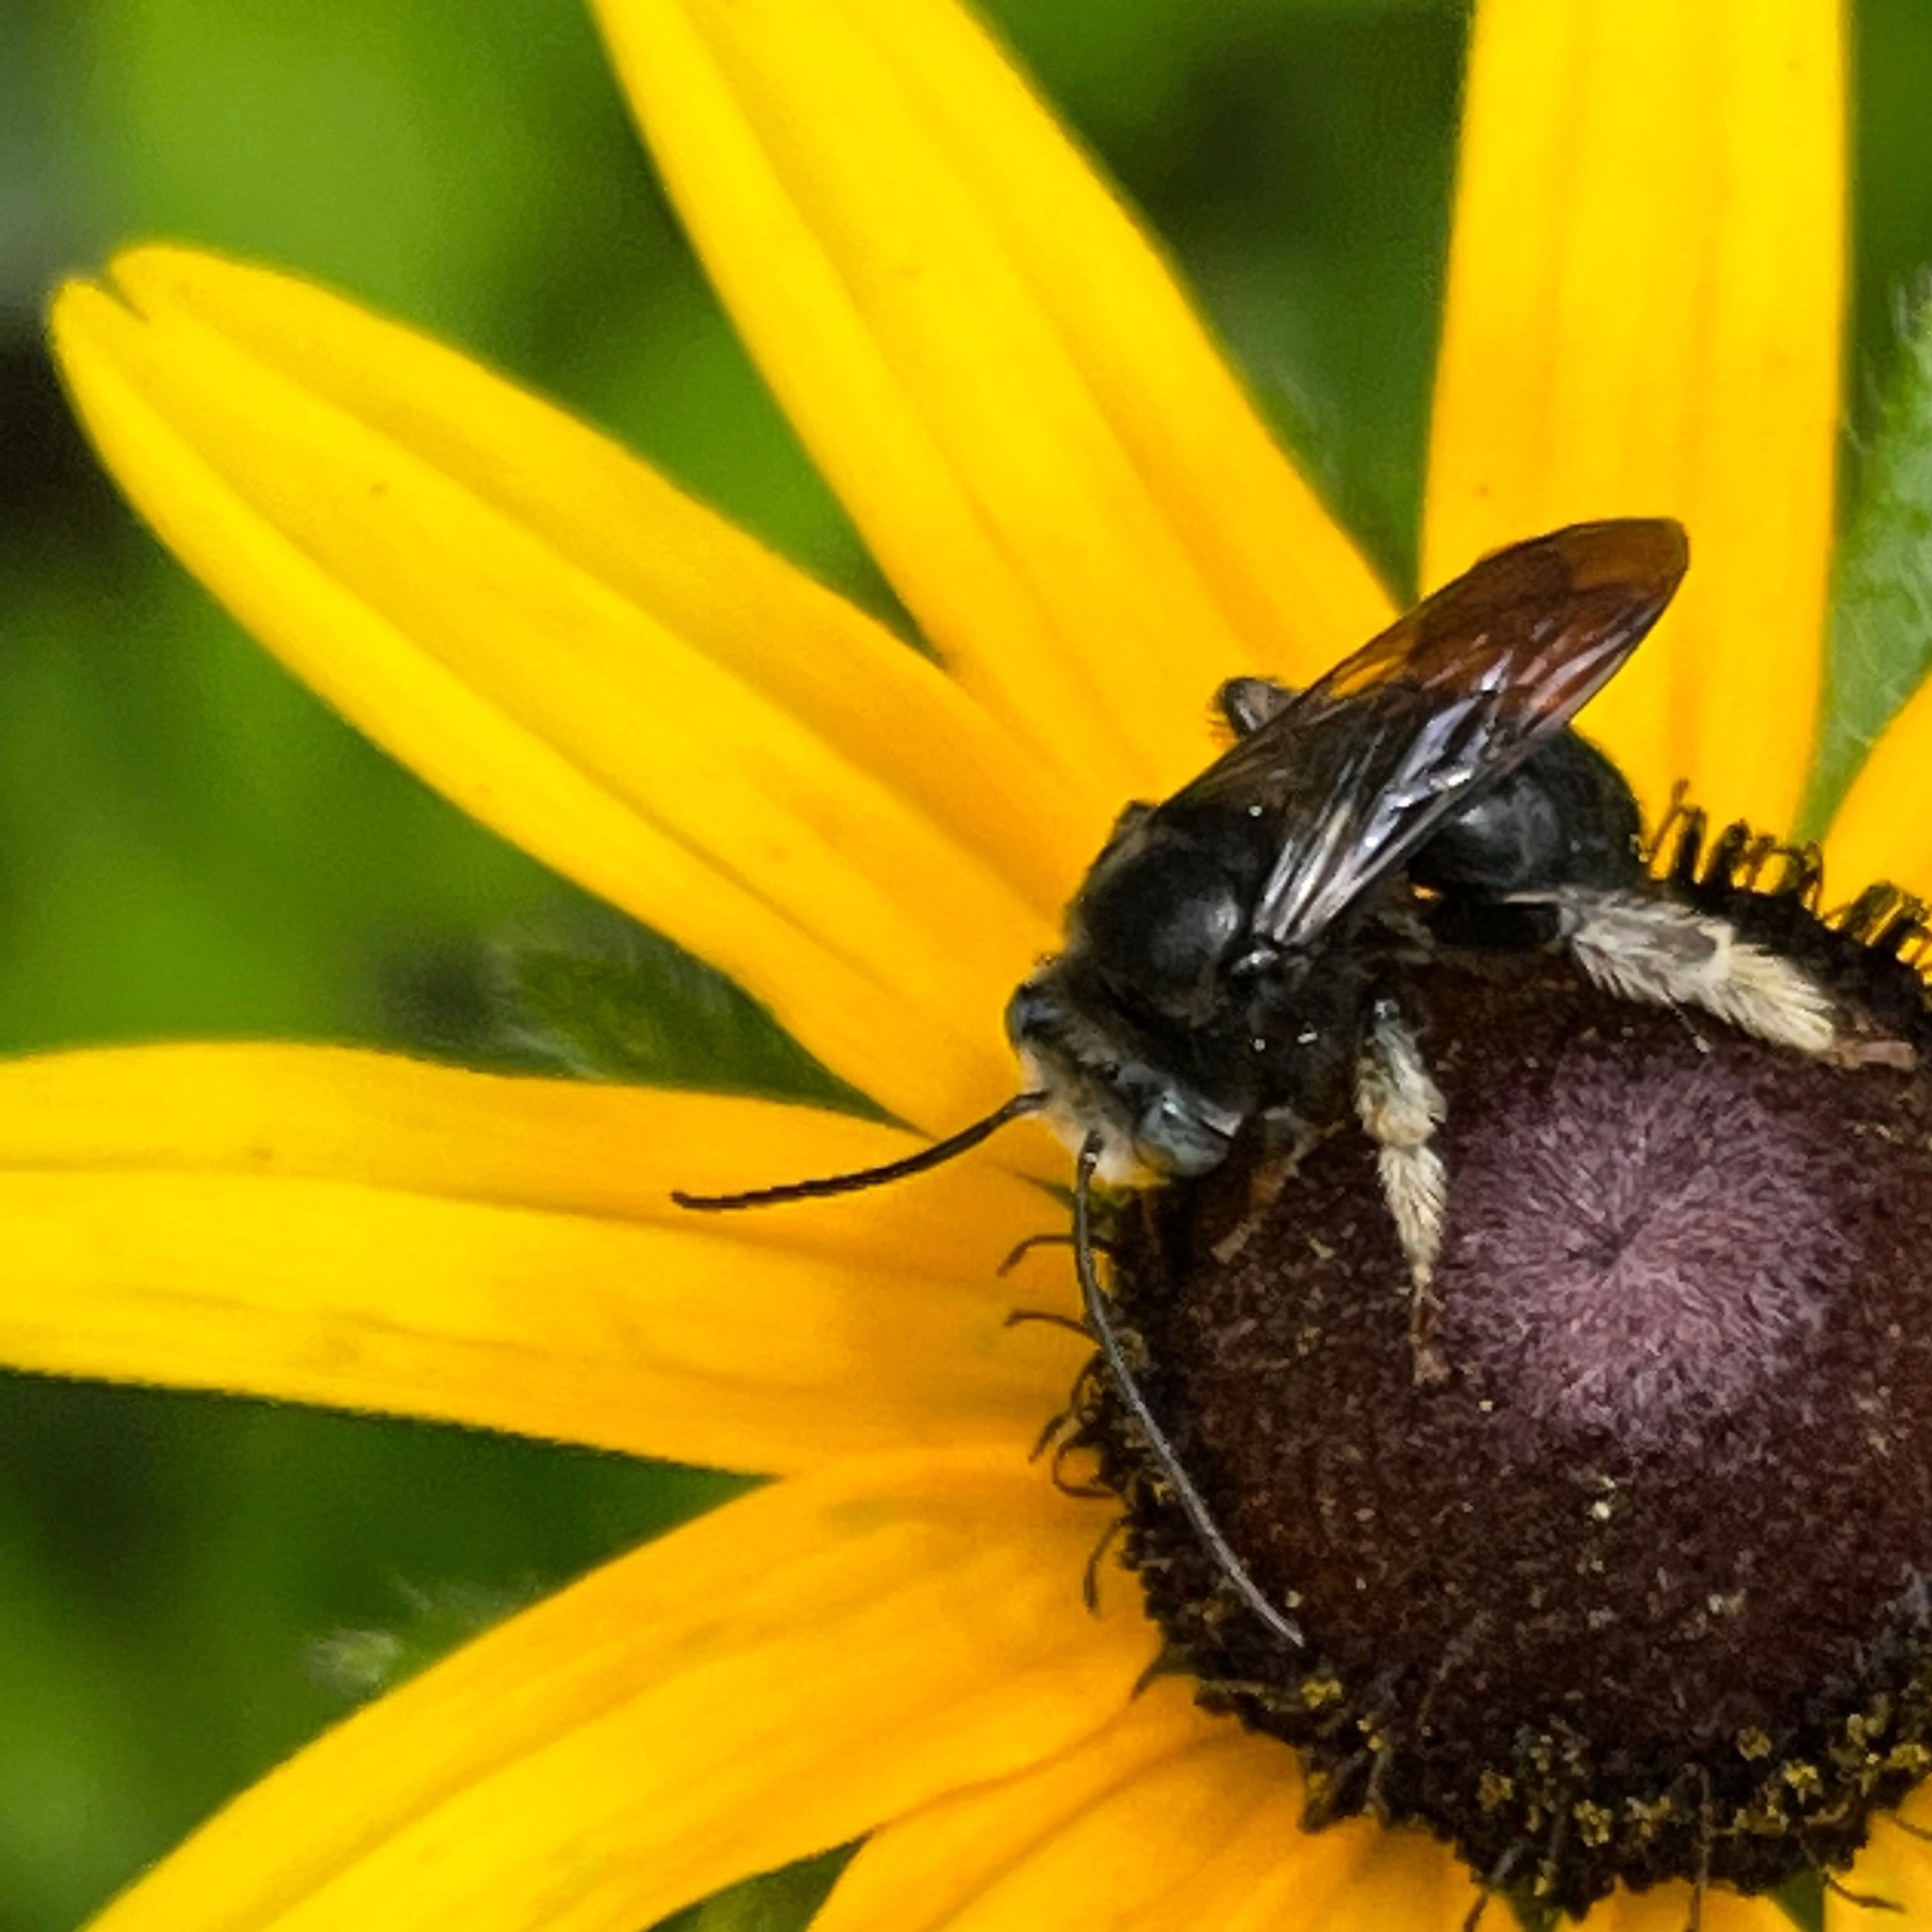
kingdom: Animalia
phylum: Arthropoda
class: Insecta
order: Hymenoptera
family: Apidae
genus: Melissodes
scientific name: Melissodes bimaculatus
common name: Two-spotted long-horned bee
